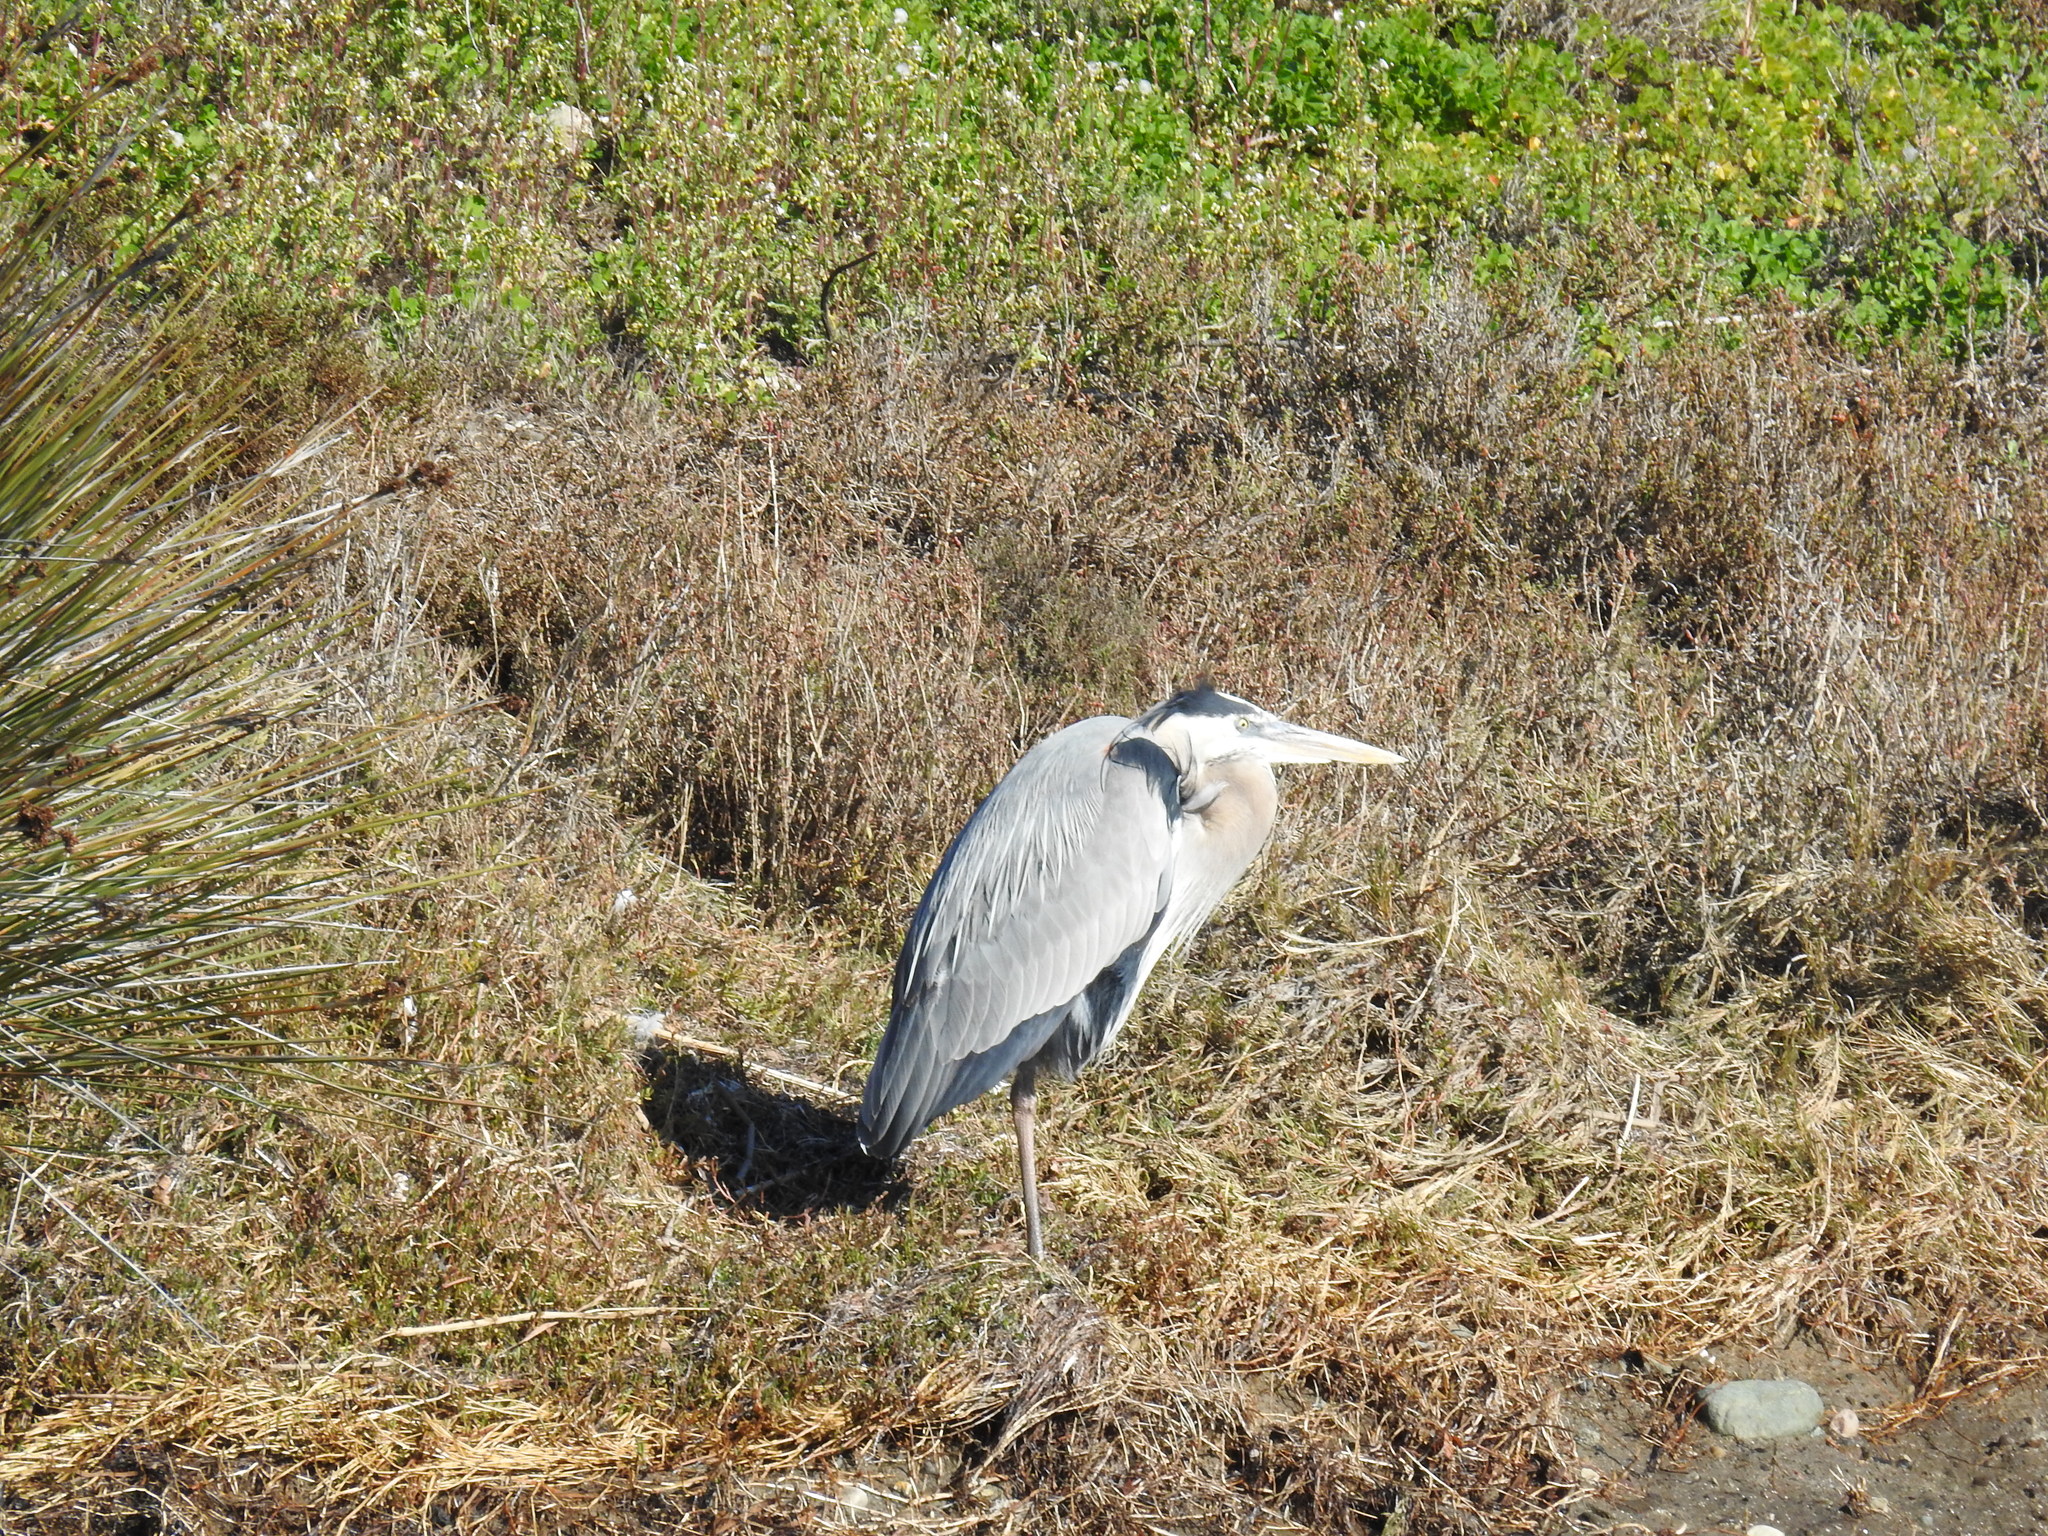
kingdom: Animalia
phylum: Chordata
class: Aves
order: Pelecaniformes
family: Ardeidae
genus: Ardea
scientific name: Ardea herodias
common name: Great blue heron
